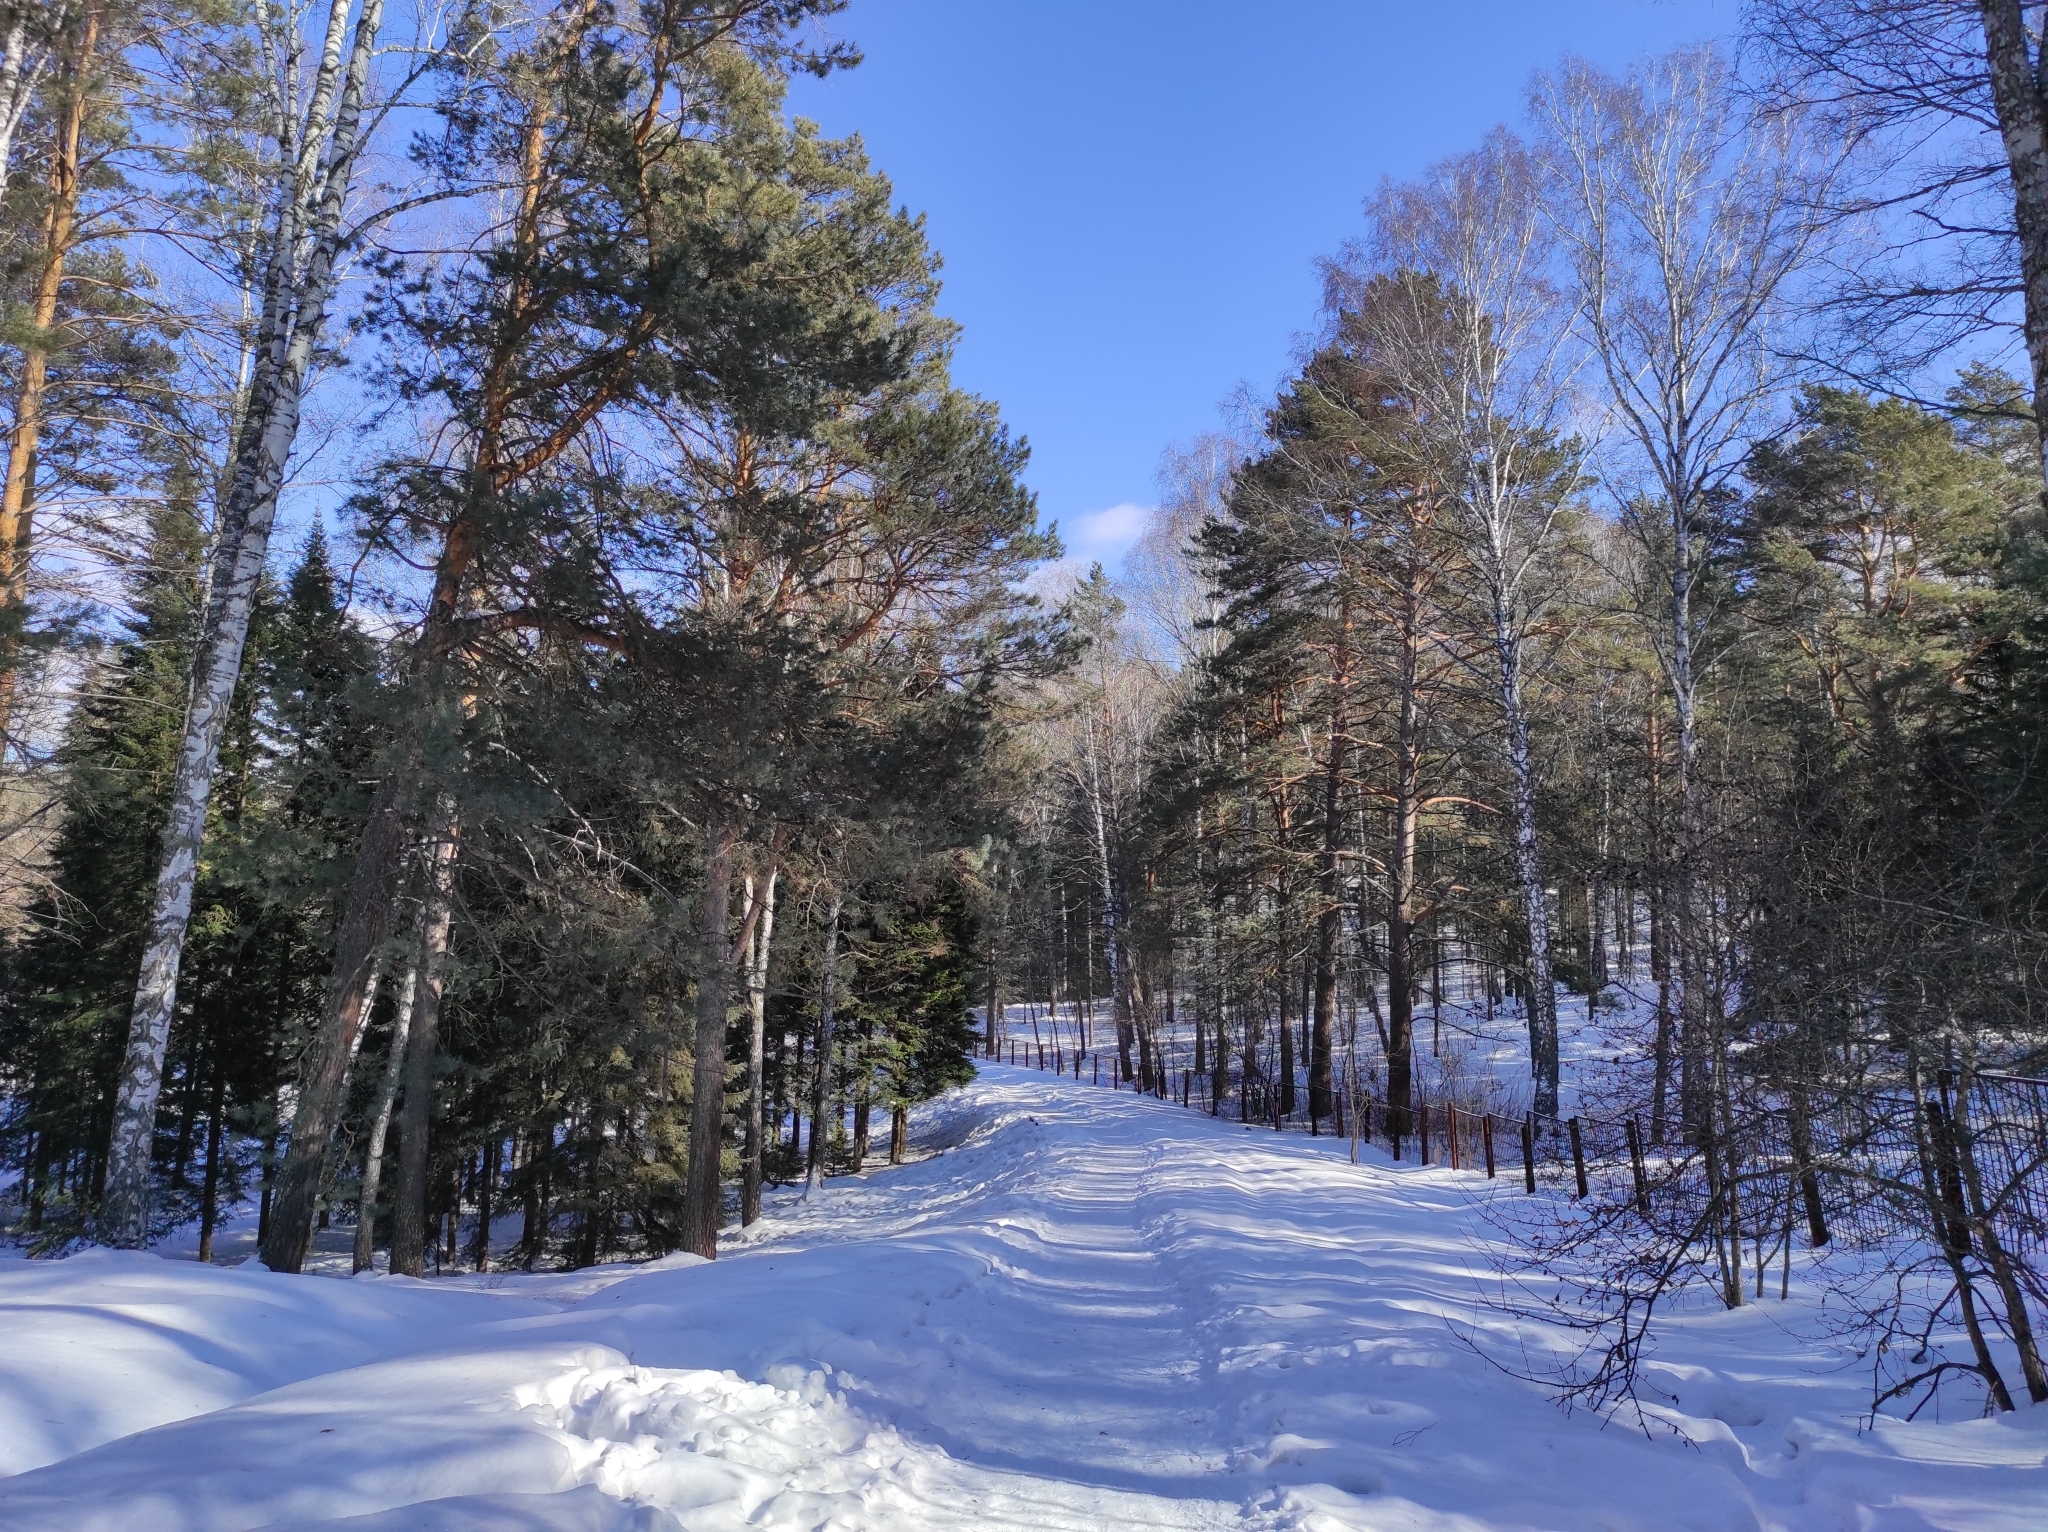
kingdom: Plantae
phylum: Tracheophyta
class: Pinopsida
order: Pinales
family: Pinaceae
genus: Pinus
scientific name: Pinus sylvestris
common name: Scots pine
